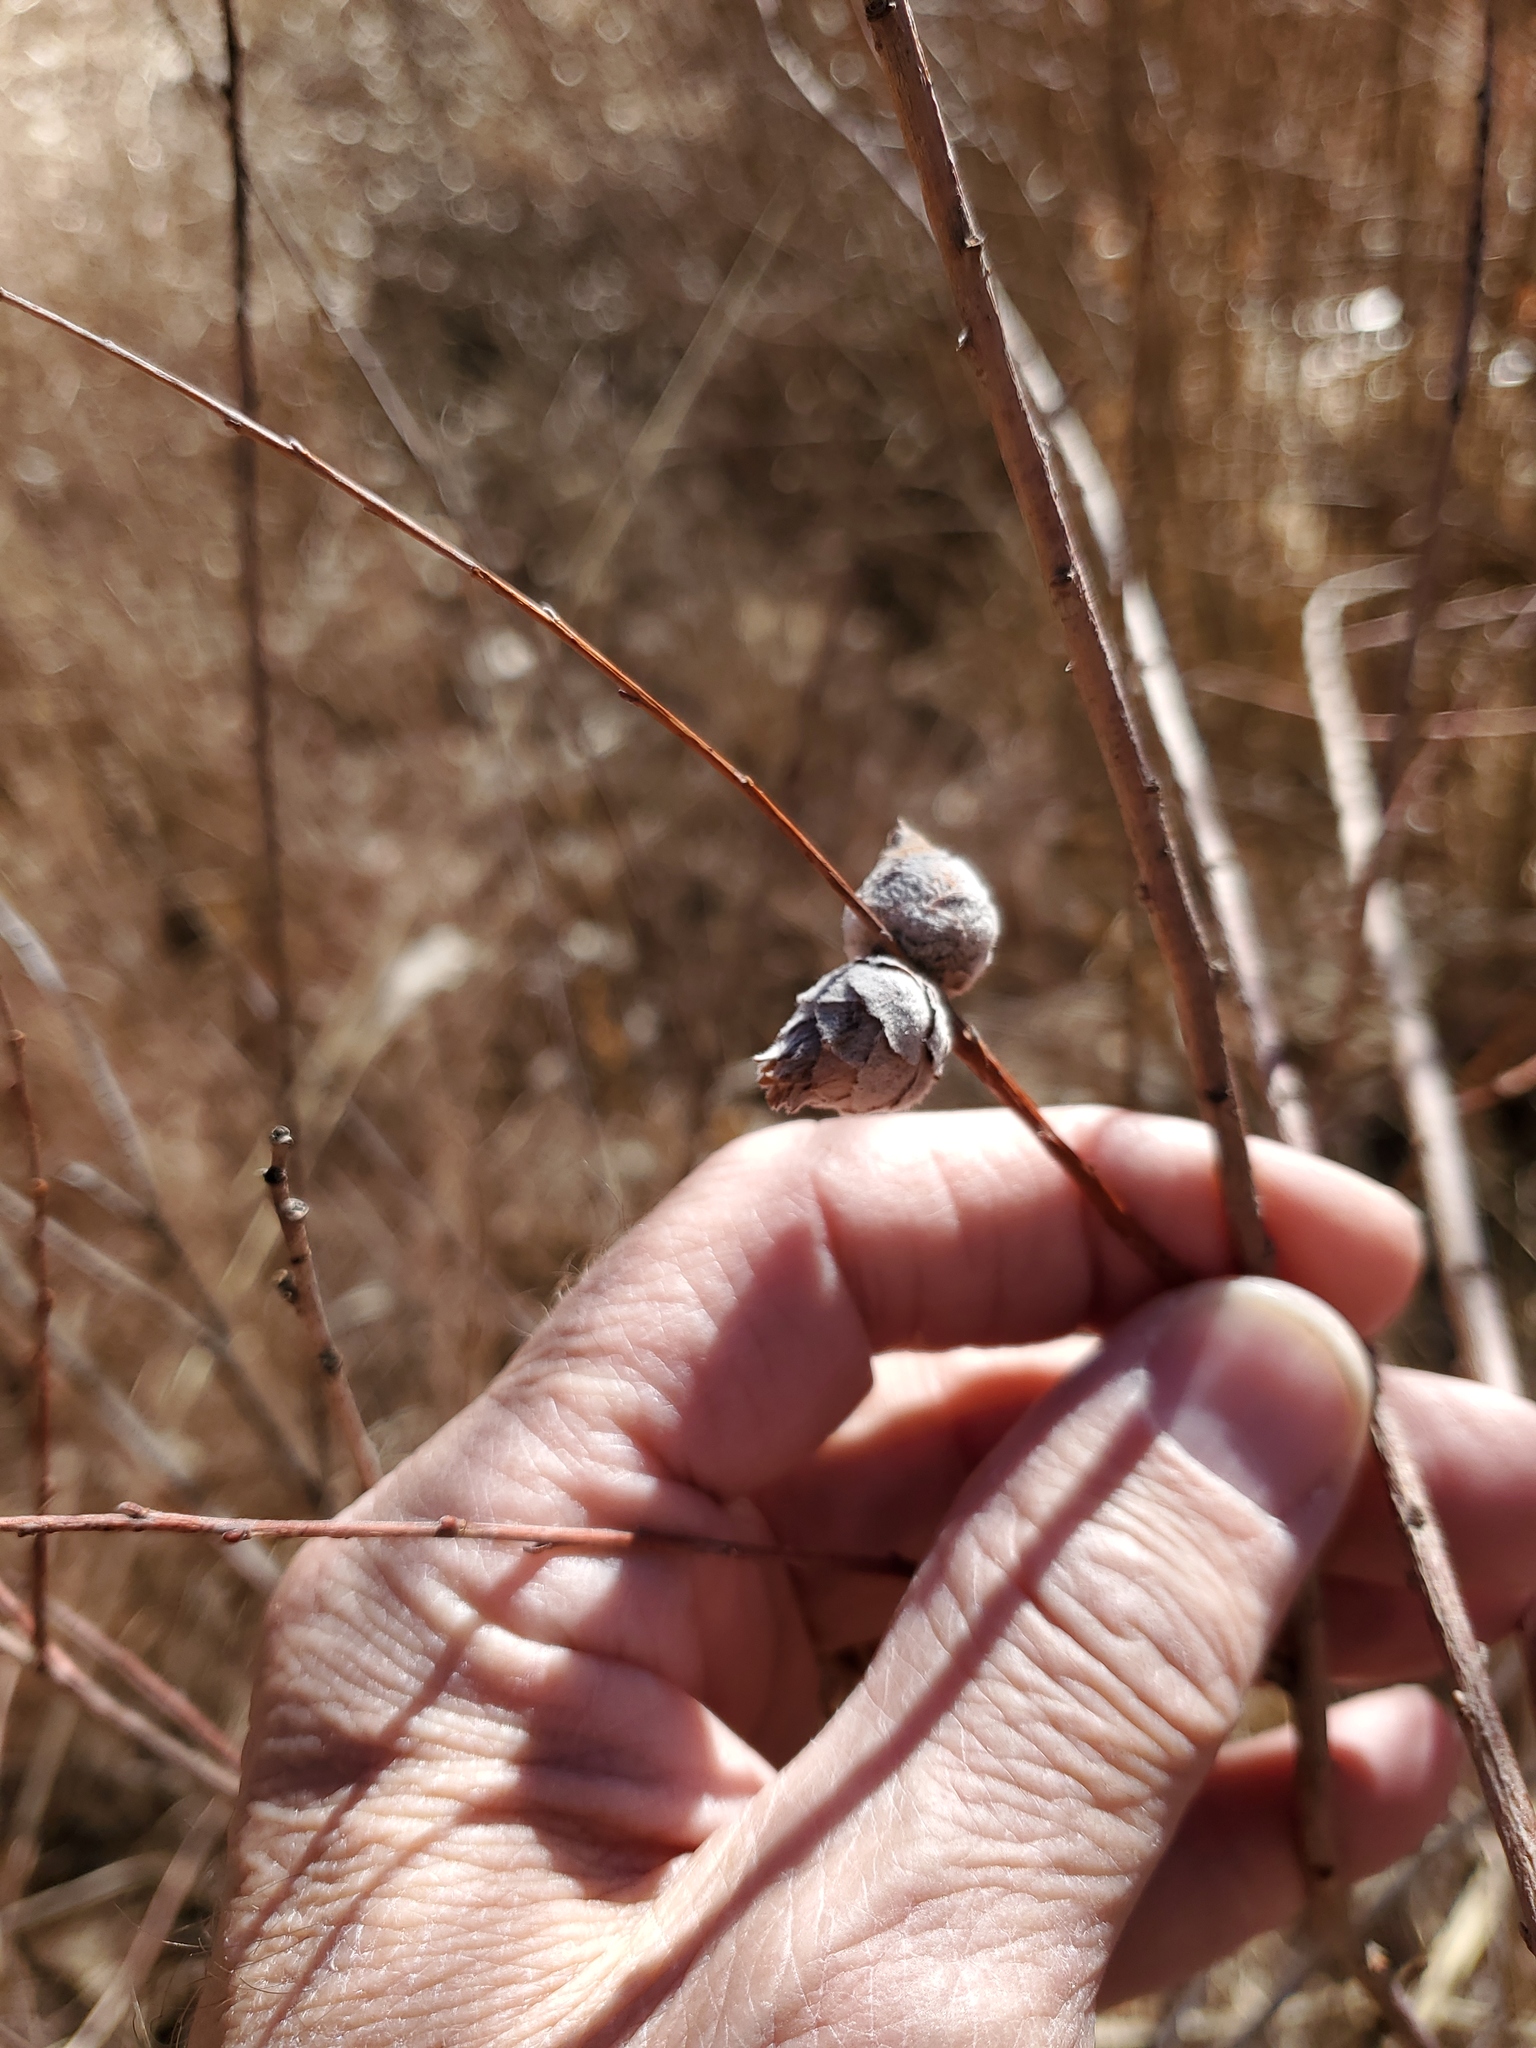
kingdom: Animalia
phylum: Arthropoda
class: Insecta
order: Diptera
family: Cecidomyiidae
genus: Rabdophaga
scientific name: Rabdophaga strobiloides
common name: Willow pinecone gall midge
